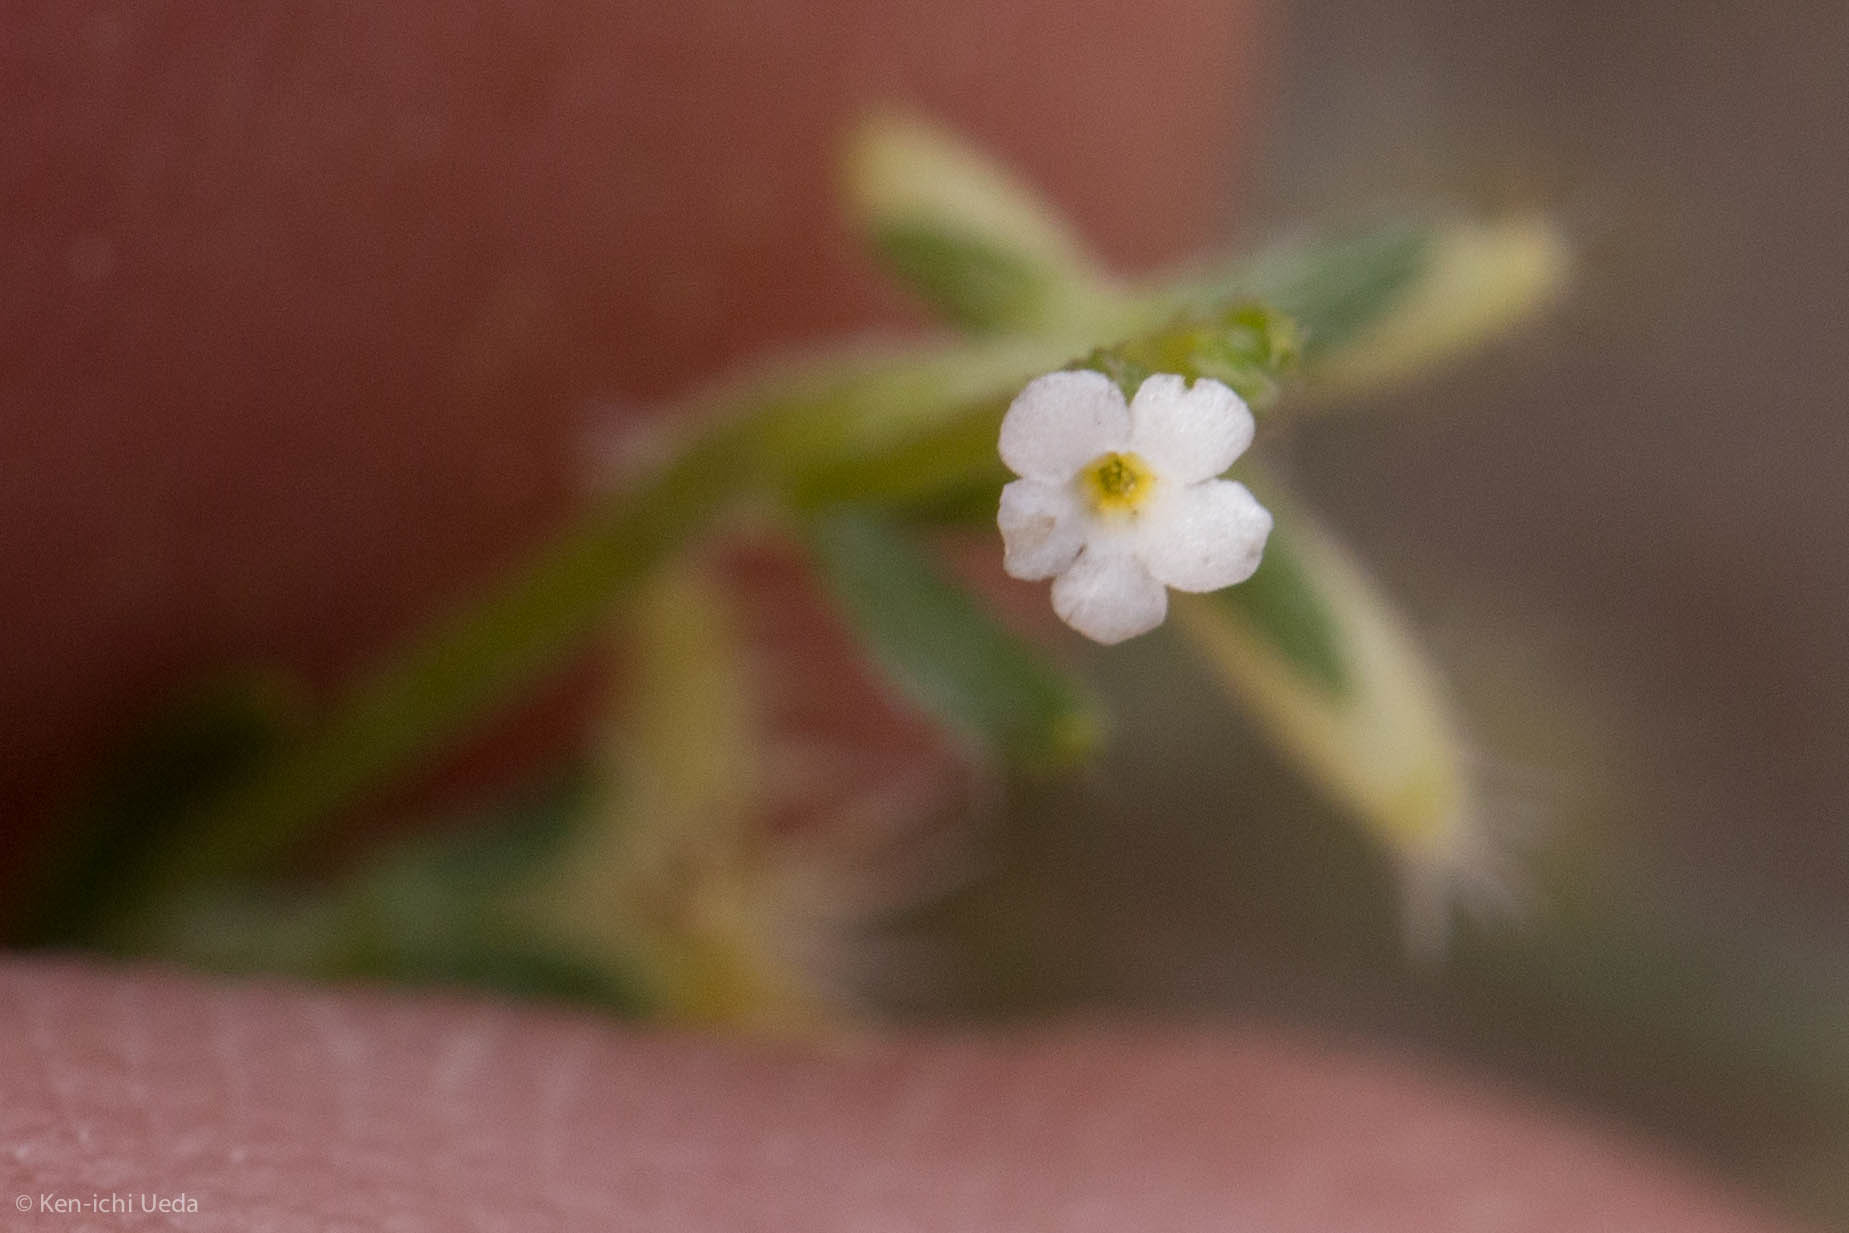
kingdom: Plantae
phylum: Tracheophyta
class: Magnoliopsida
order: Boraginales
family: Boraginaceae
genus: Pectocarya
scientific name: Pectocarya recurvata
